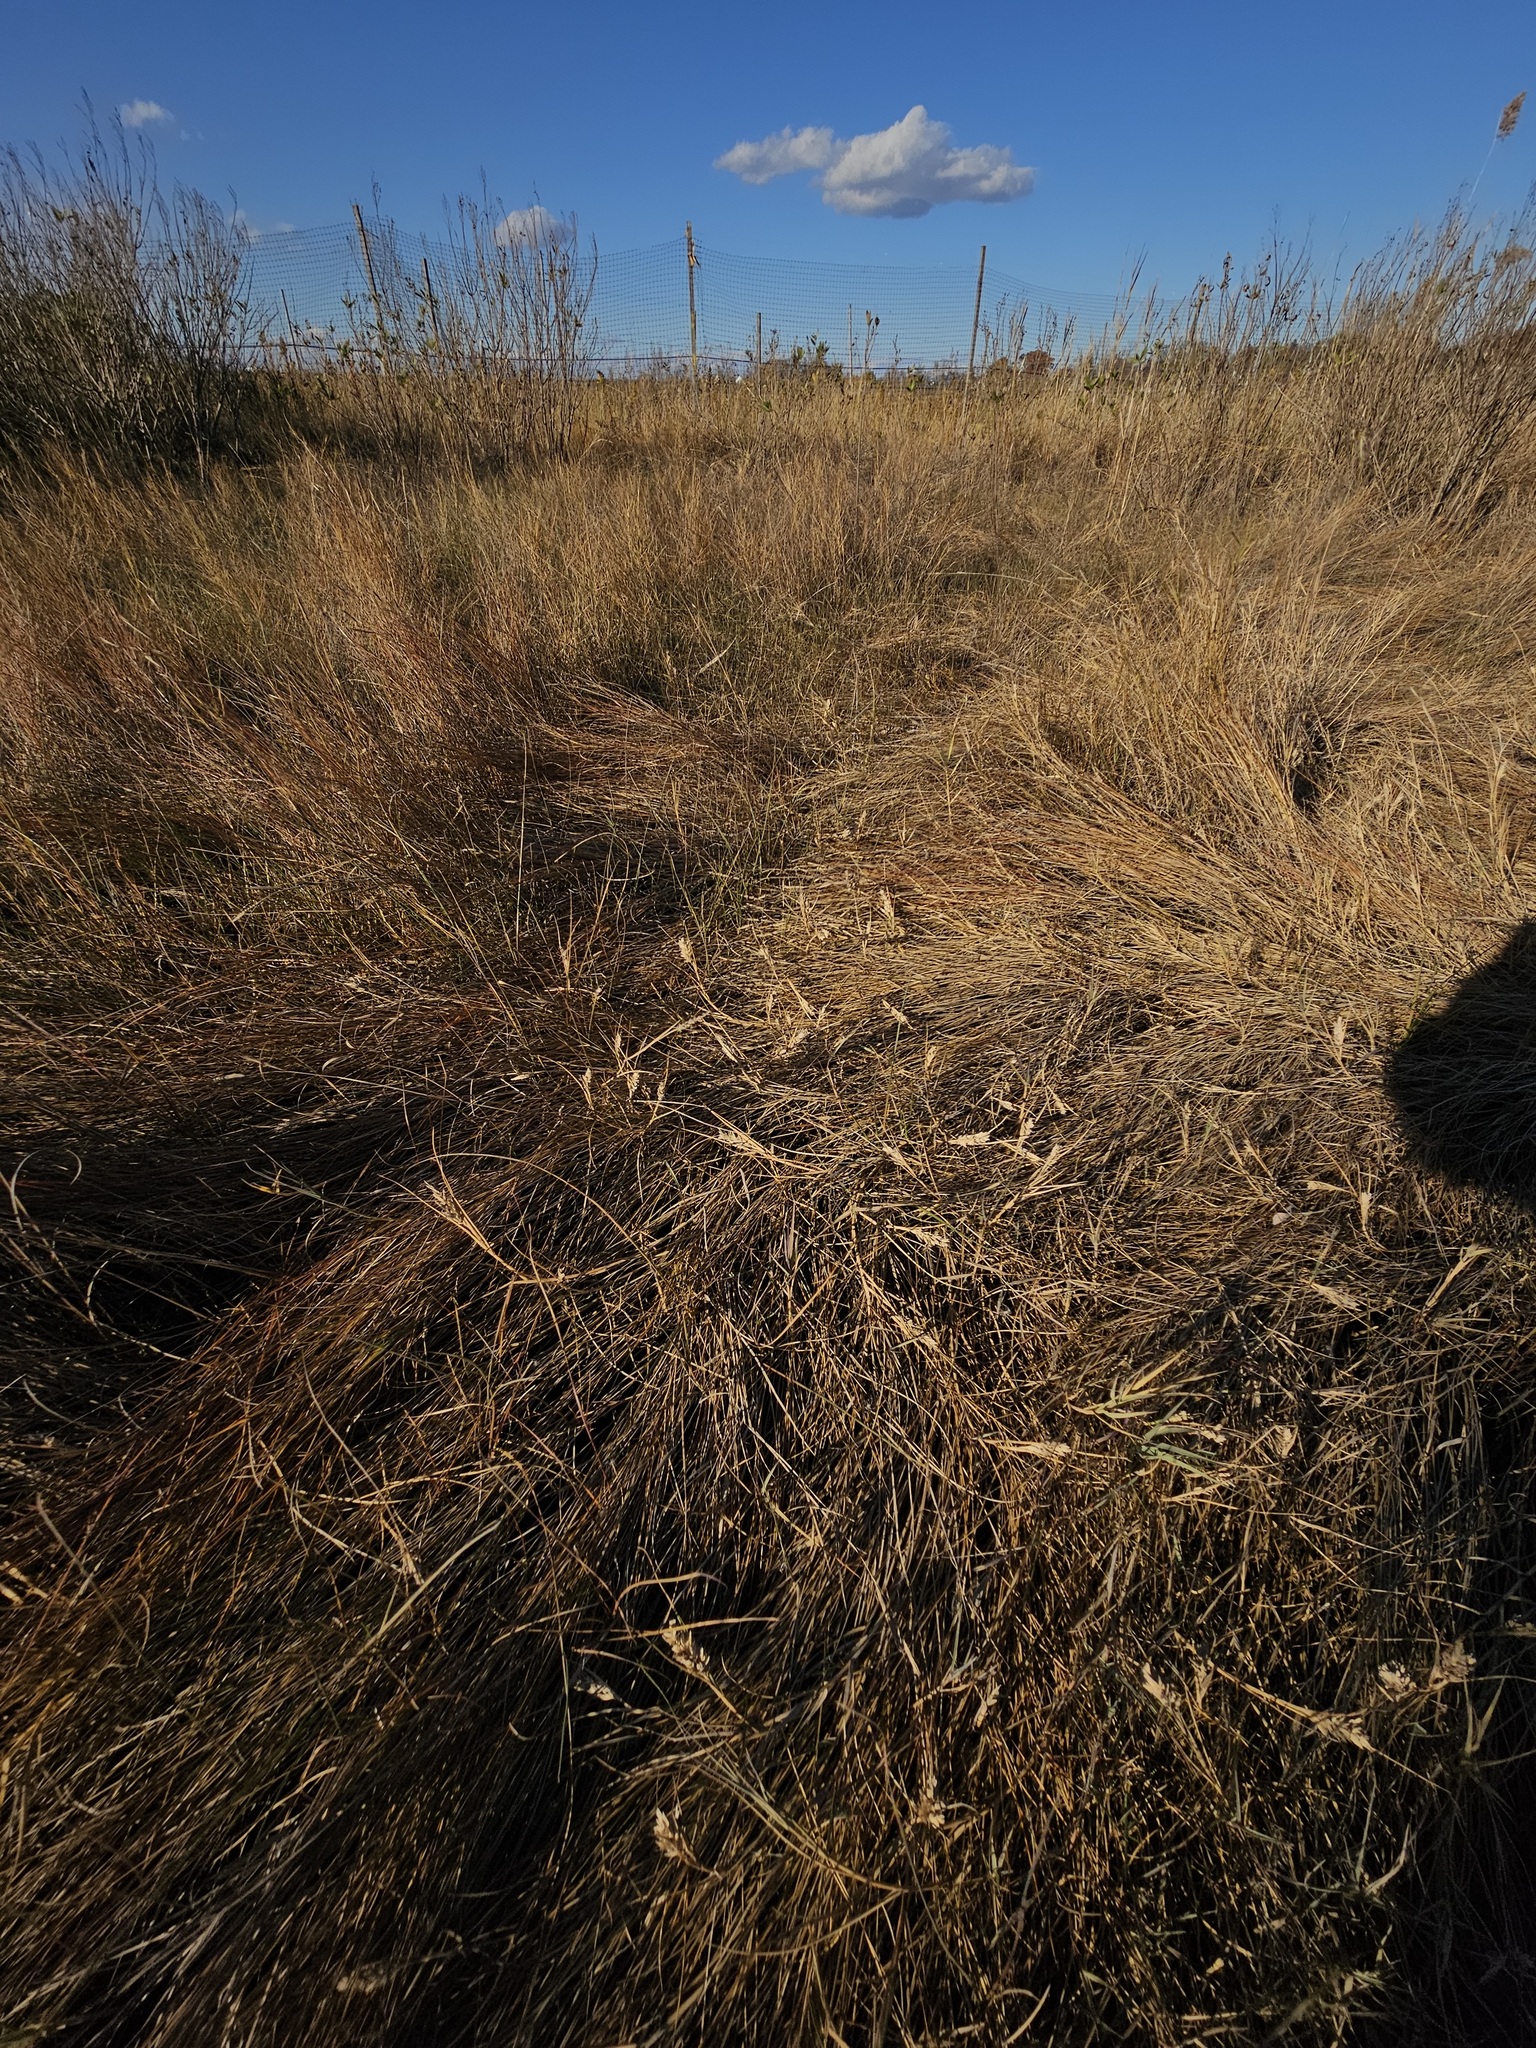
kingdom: Plantae
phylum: Tracheophyta
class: Liliopsida
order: Poales
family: Poaceae
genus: Distichlis
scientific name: Distichlis spicata
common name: Saltgrass
